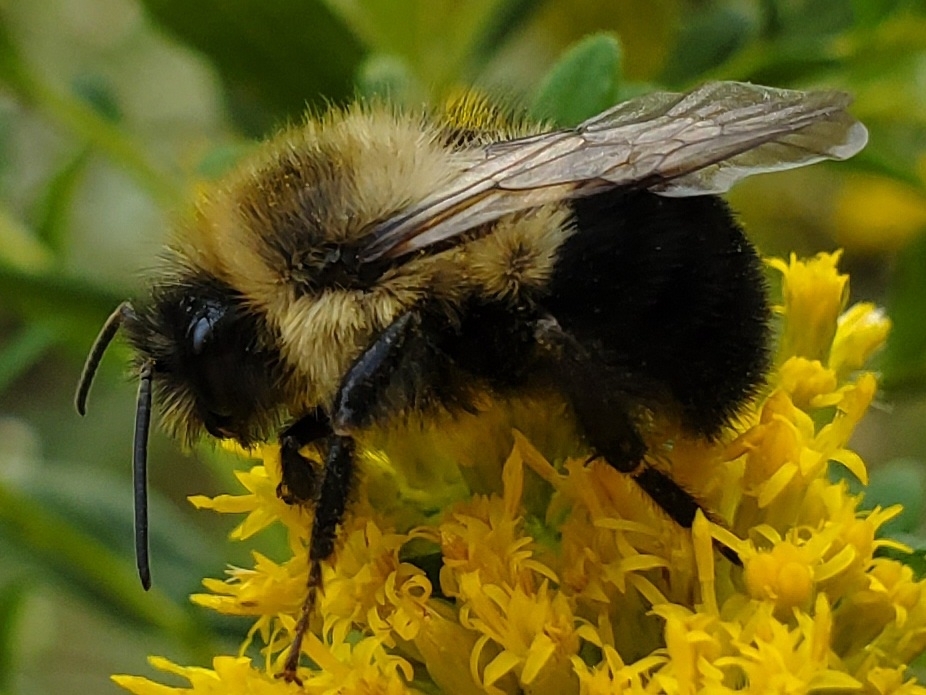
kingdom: Animalia
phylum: Arthropoda
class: Insecta
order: Hymenoptera
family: Apidae
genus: Bombus
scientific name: Bombus impatiens
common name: Common eastern bumble bee
